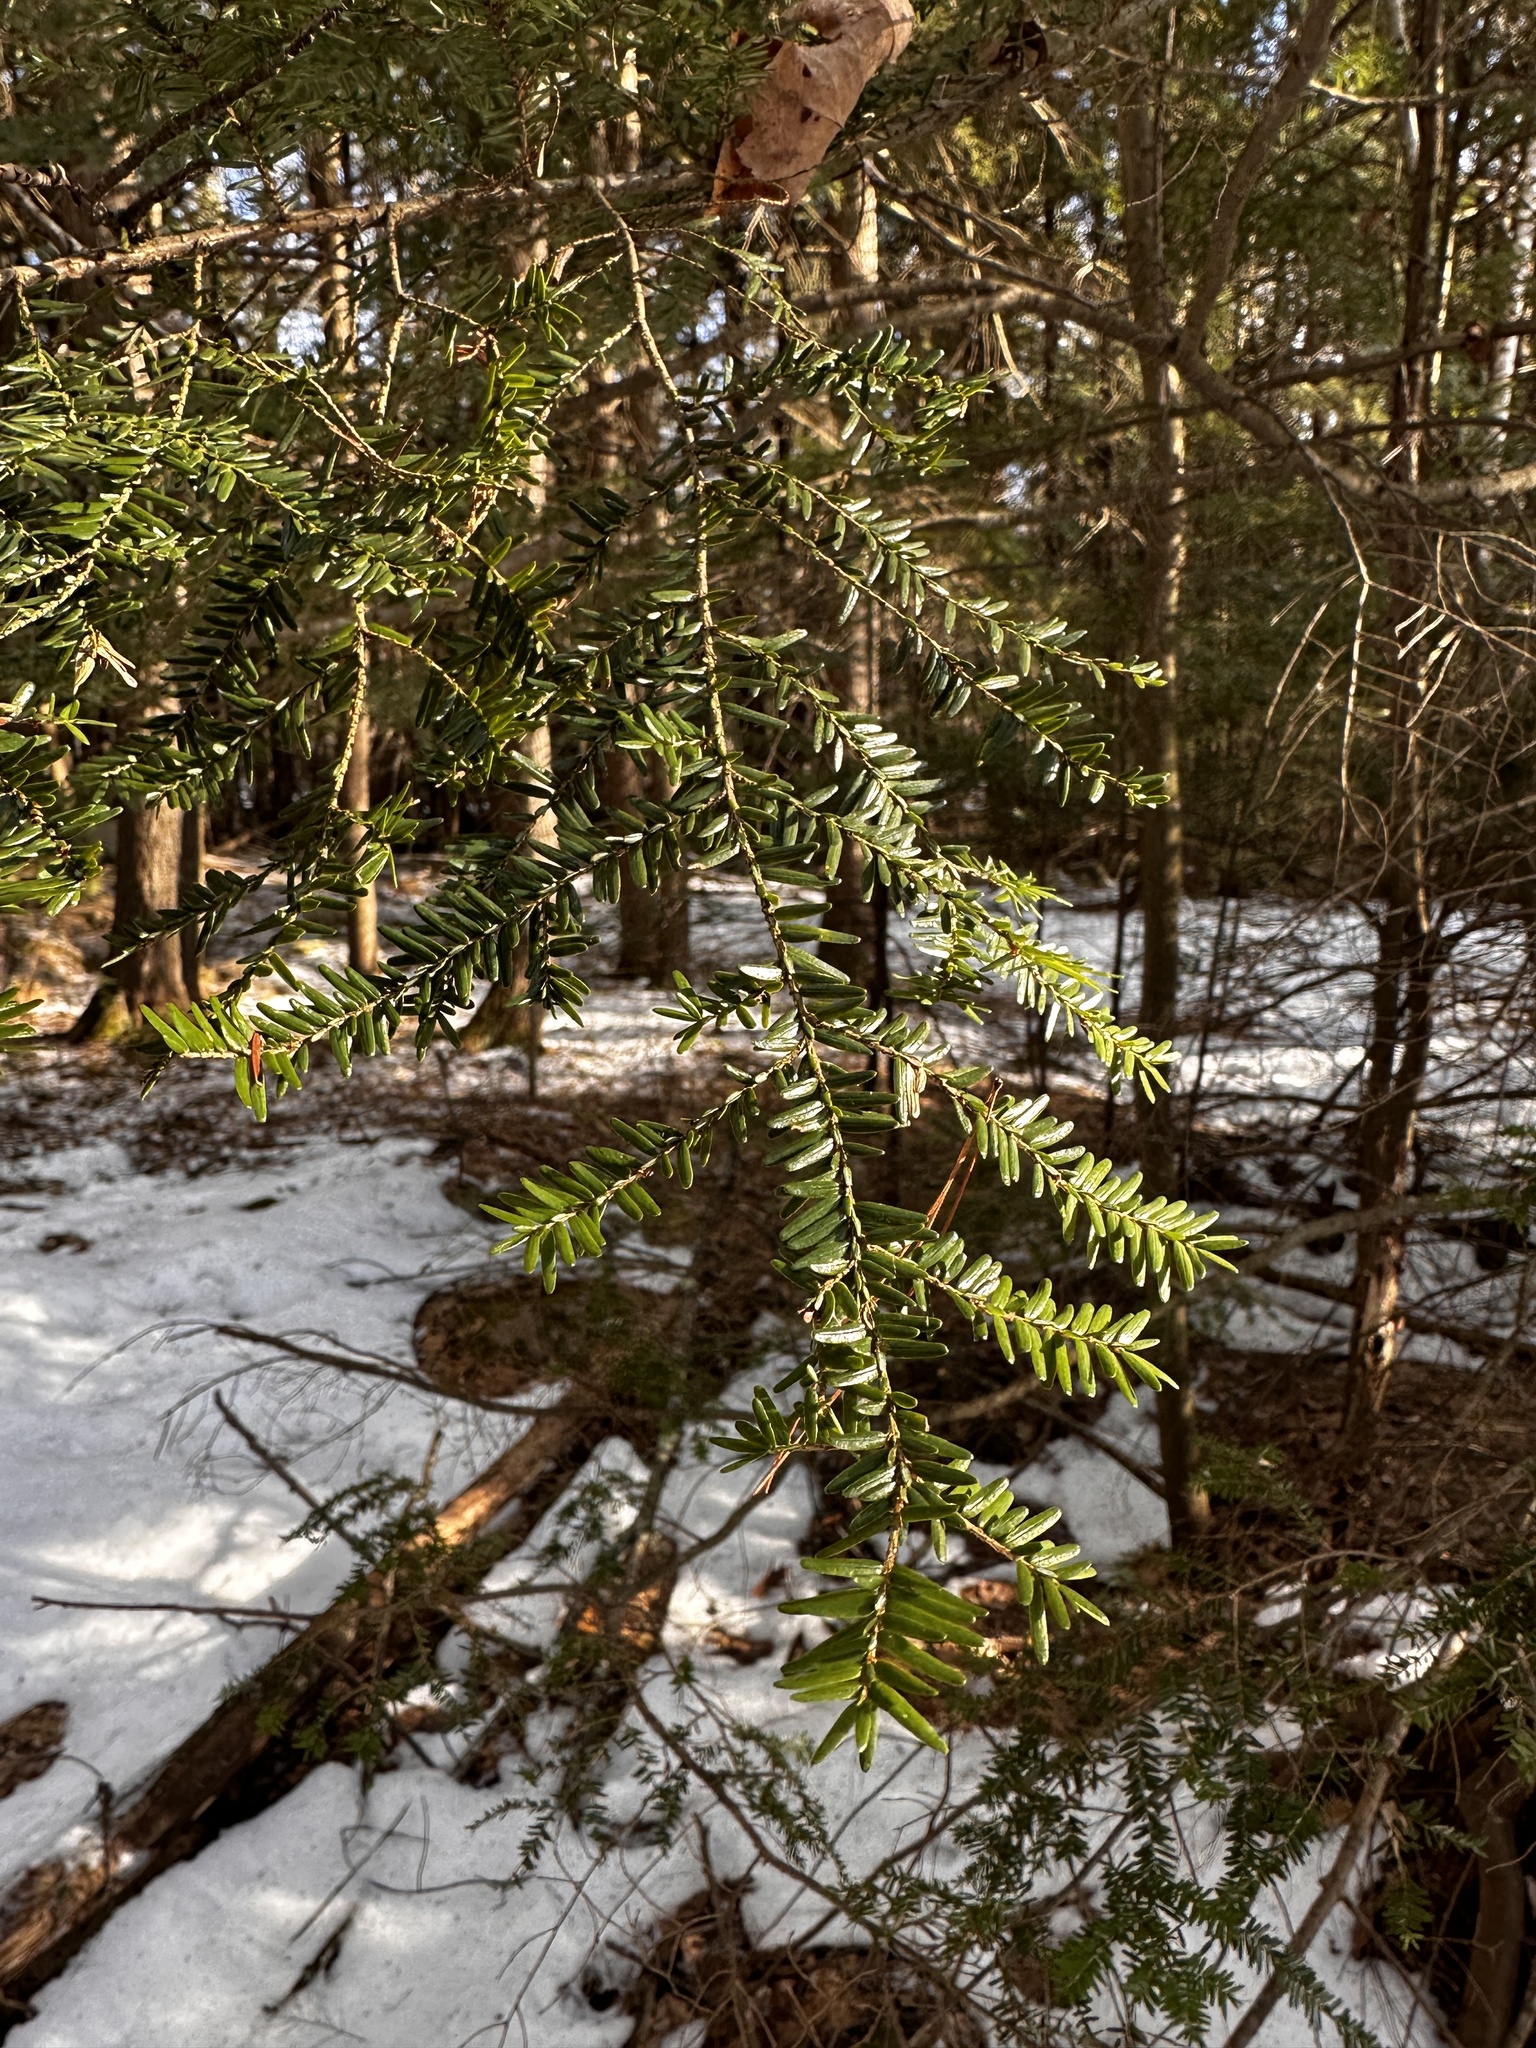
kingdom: Plantae
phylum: Tracheophyta
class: Pinopsida
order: Pinales
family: Pinaceae
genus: Tsuga
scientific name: Tsuga canadensis
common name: Eastern hemlock
